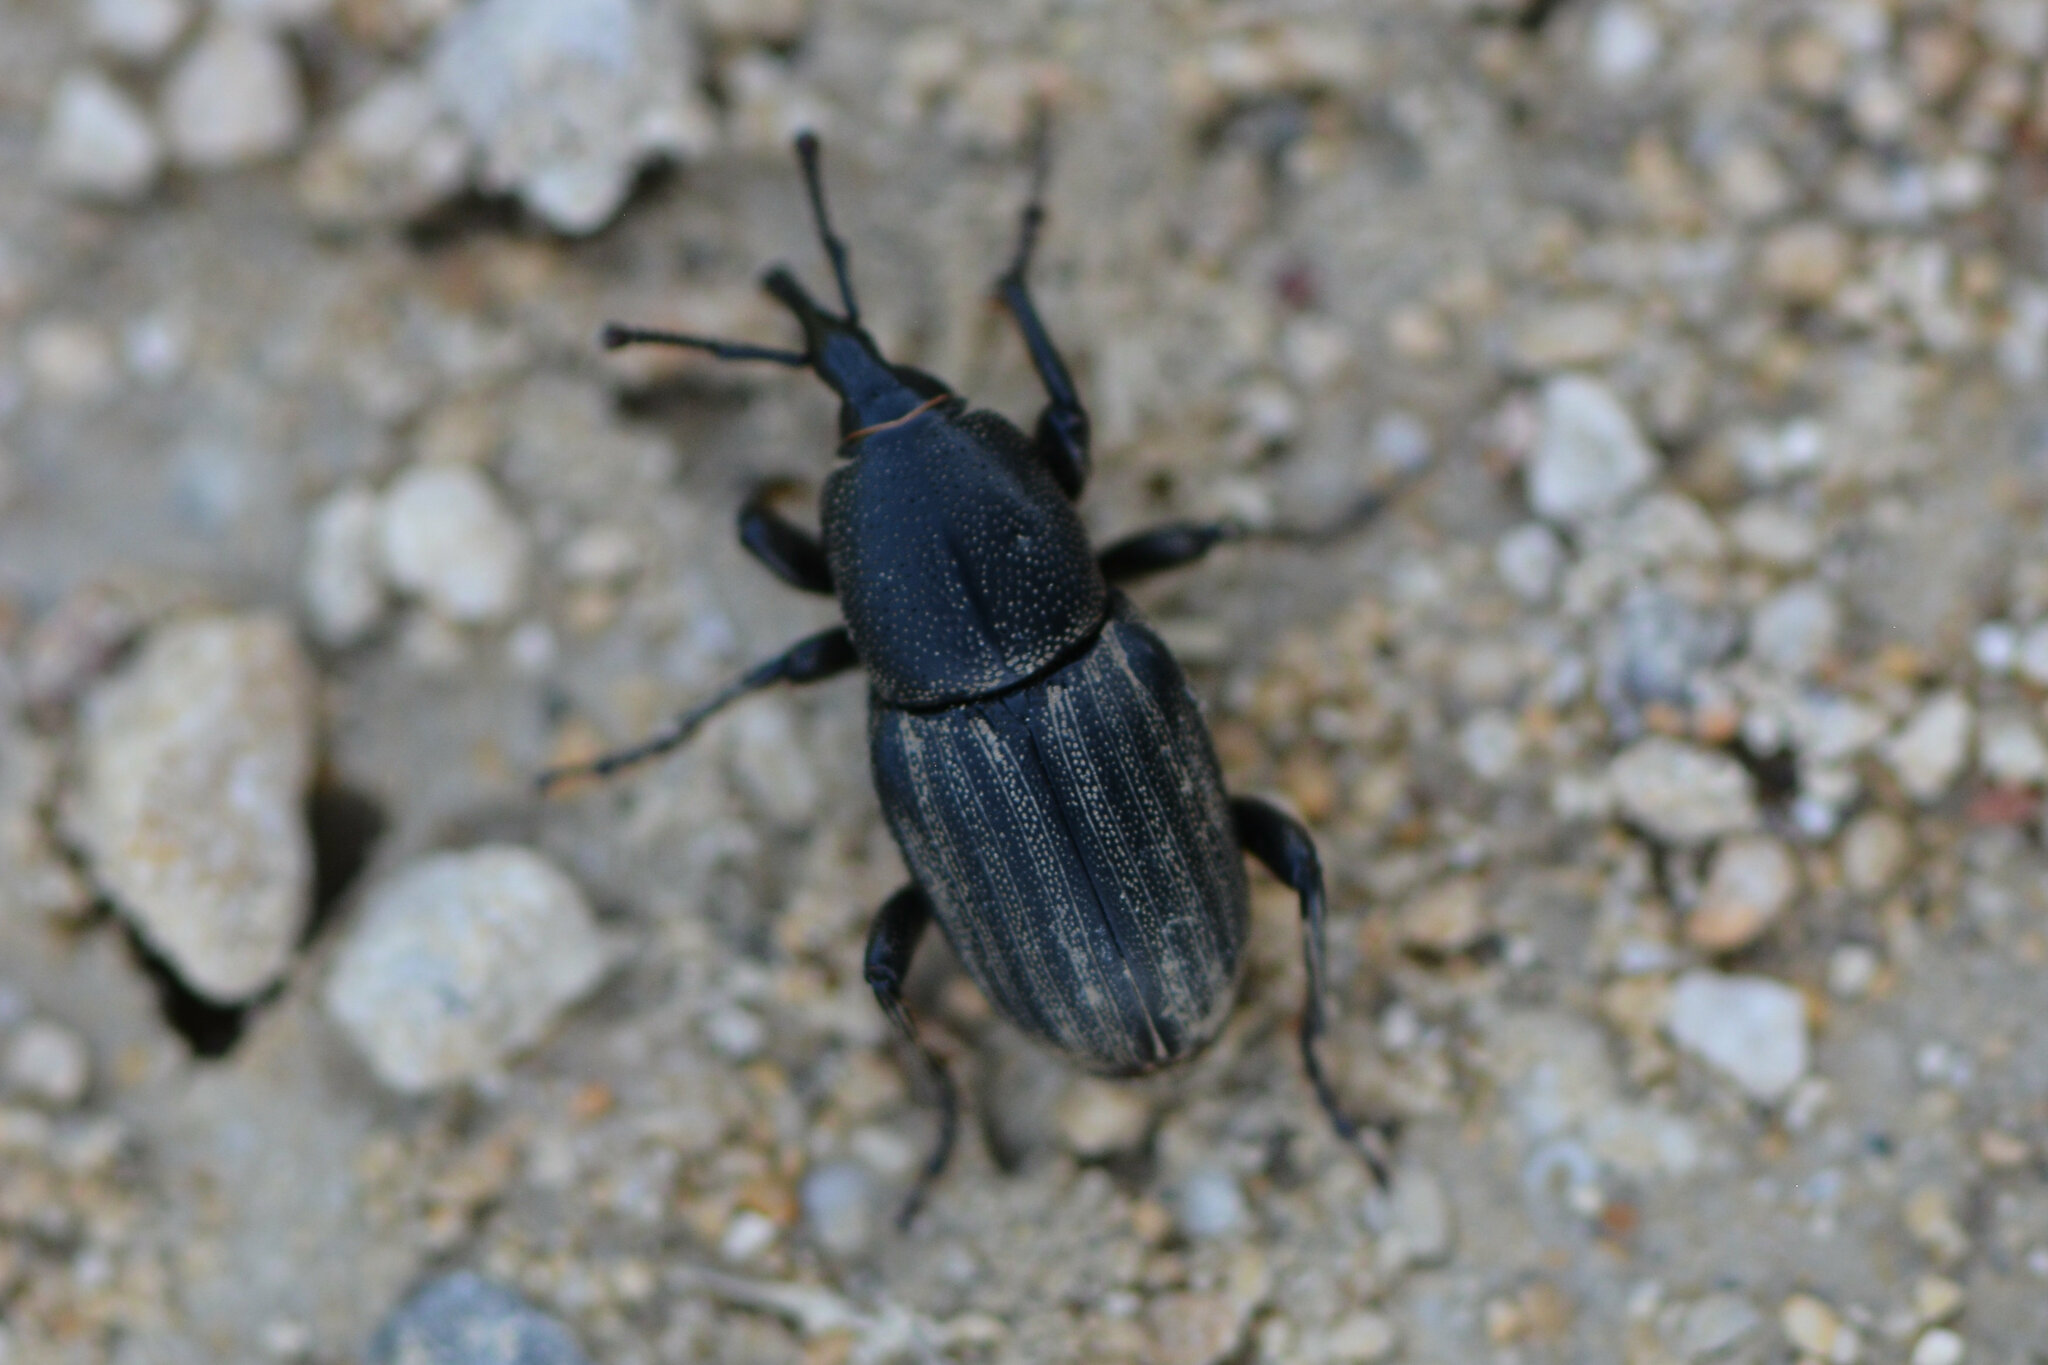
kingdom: Animalia
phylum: Arthropoda
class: Insecta
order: Coleoptera
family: Dryophthoridae
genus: Sphenophorus
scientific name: Sphenophorus striatopunctatus
